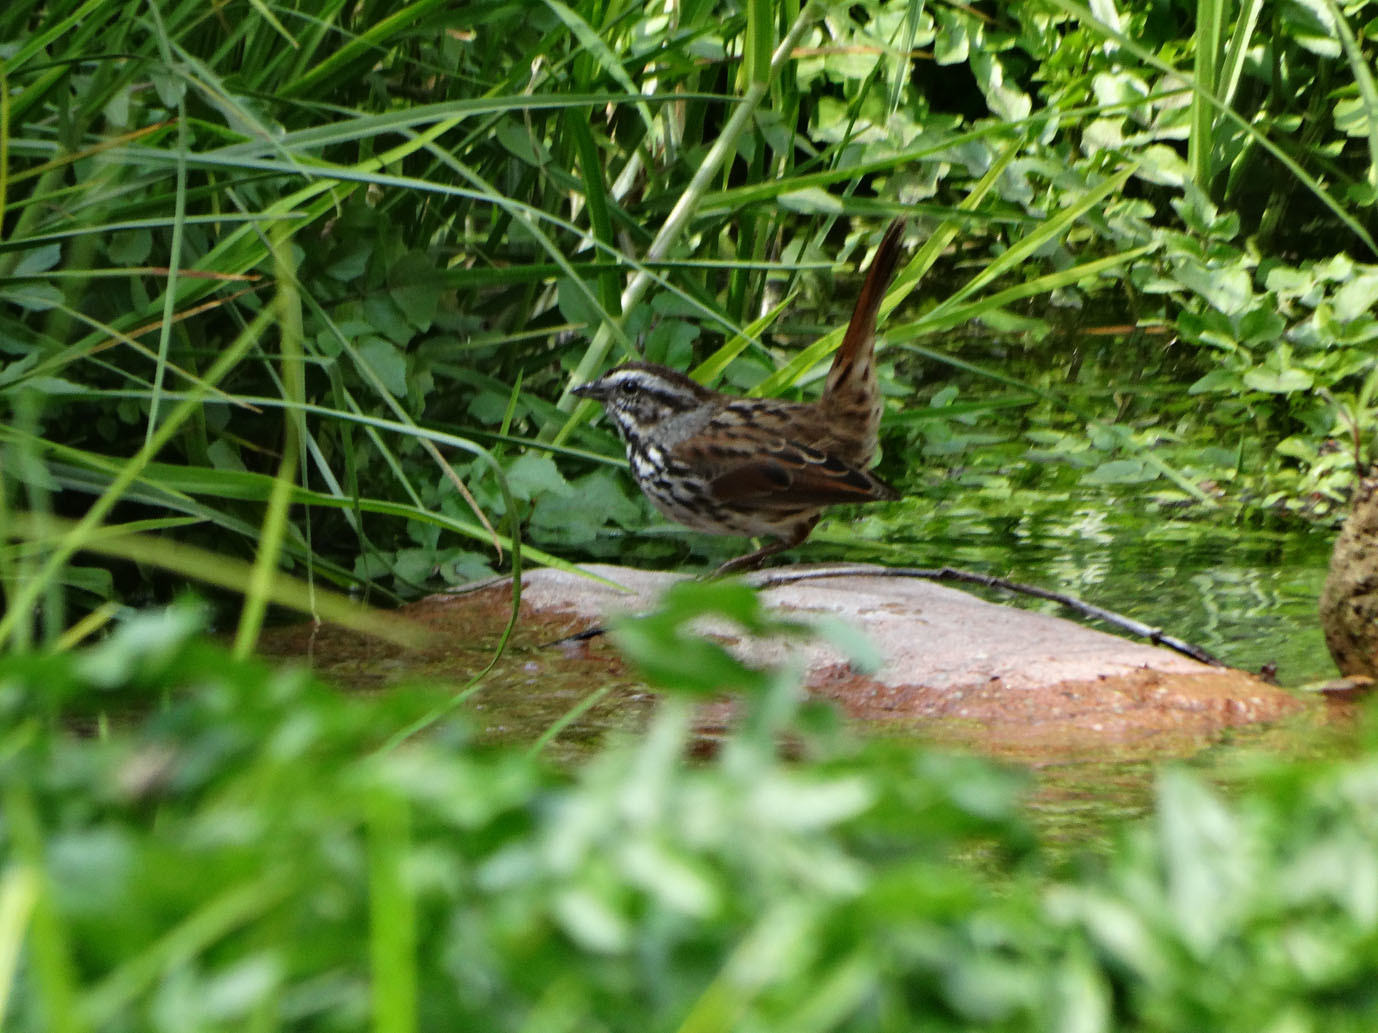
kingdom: Animalia
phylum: Chordata
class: Aves
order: Passeriformes
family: Passerellidae
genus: Melospiza
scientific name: Melospiza melodia
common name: Song sparrow
